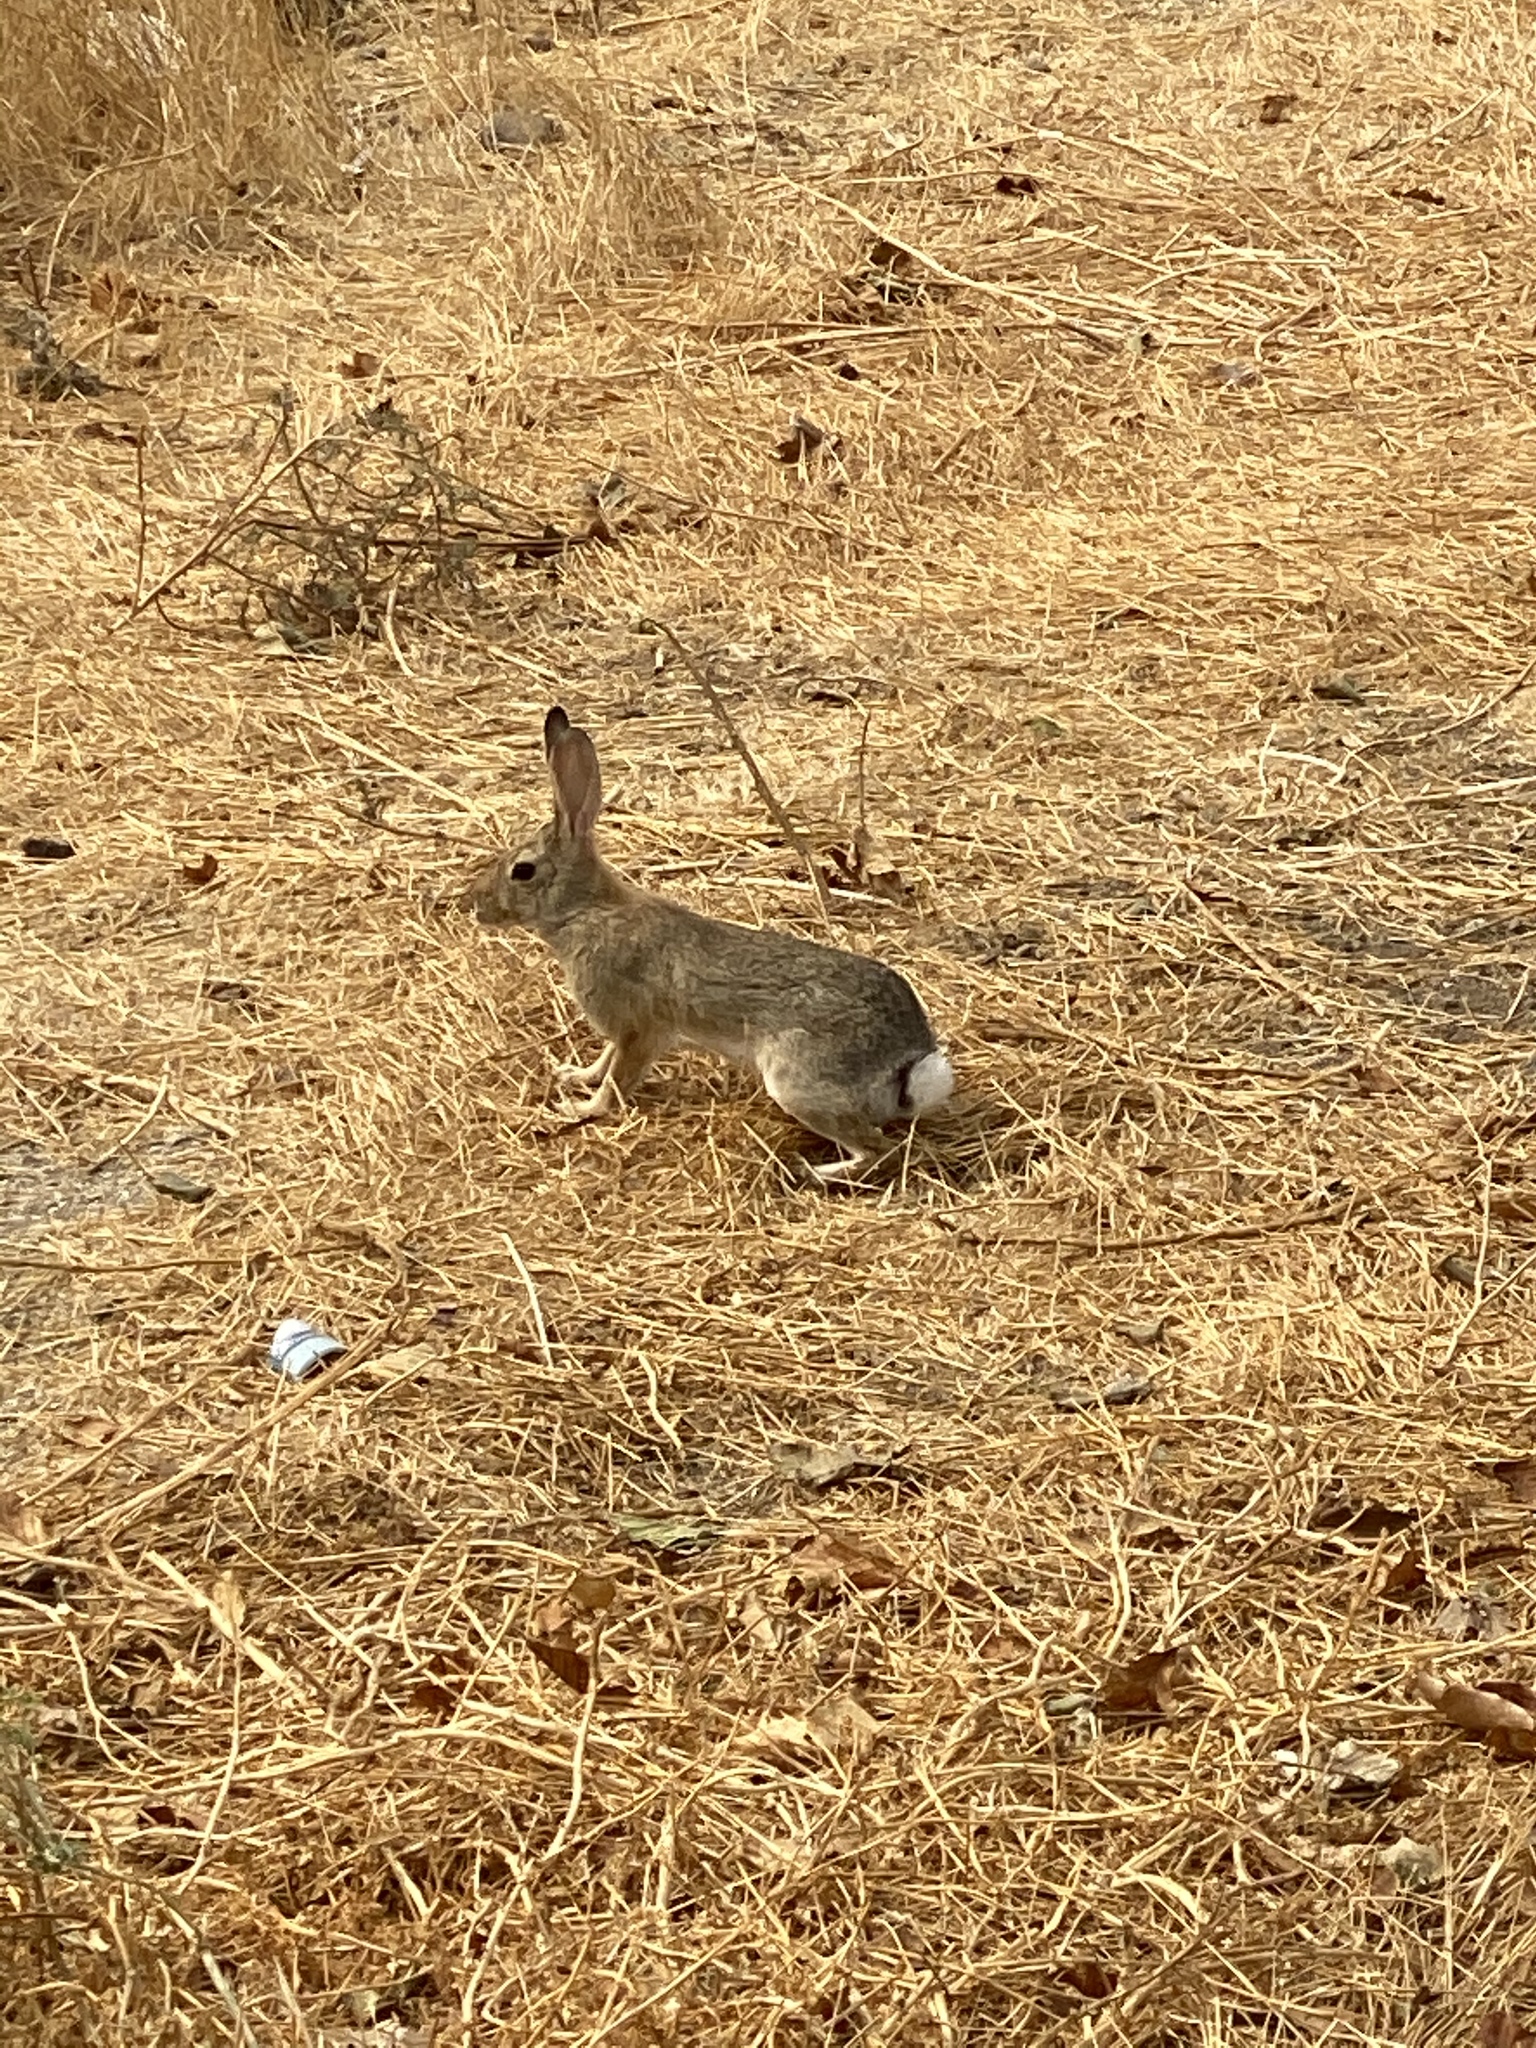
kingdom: Animalia
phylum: Chordata
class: Mammalia
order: Lagomorpha
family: Leporidae
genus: Sylvilagus
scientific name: Sylvilagus audubonii
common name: Desert cottontail
